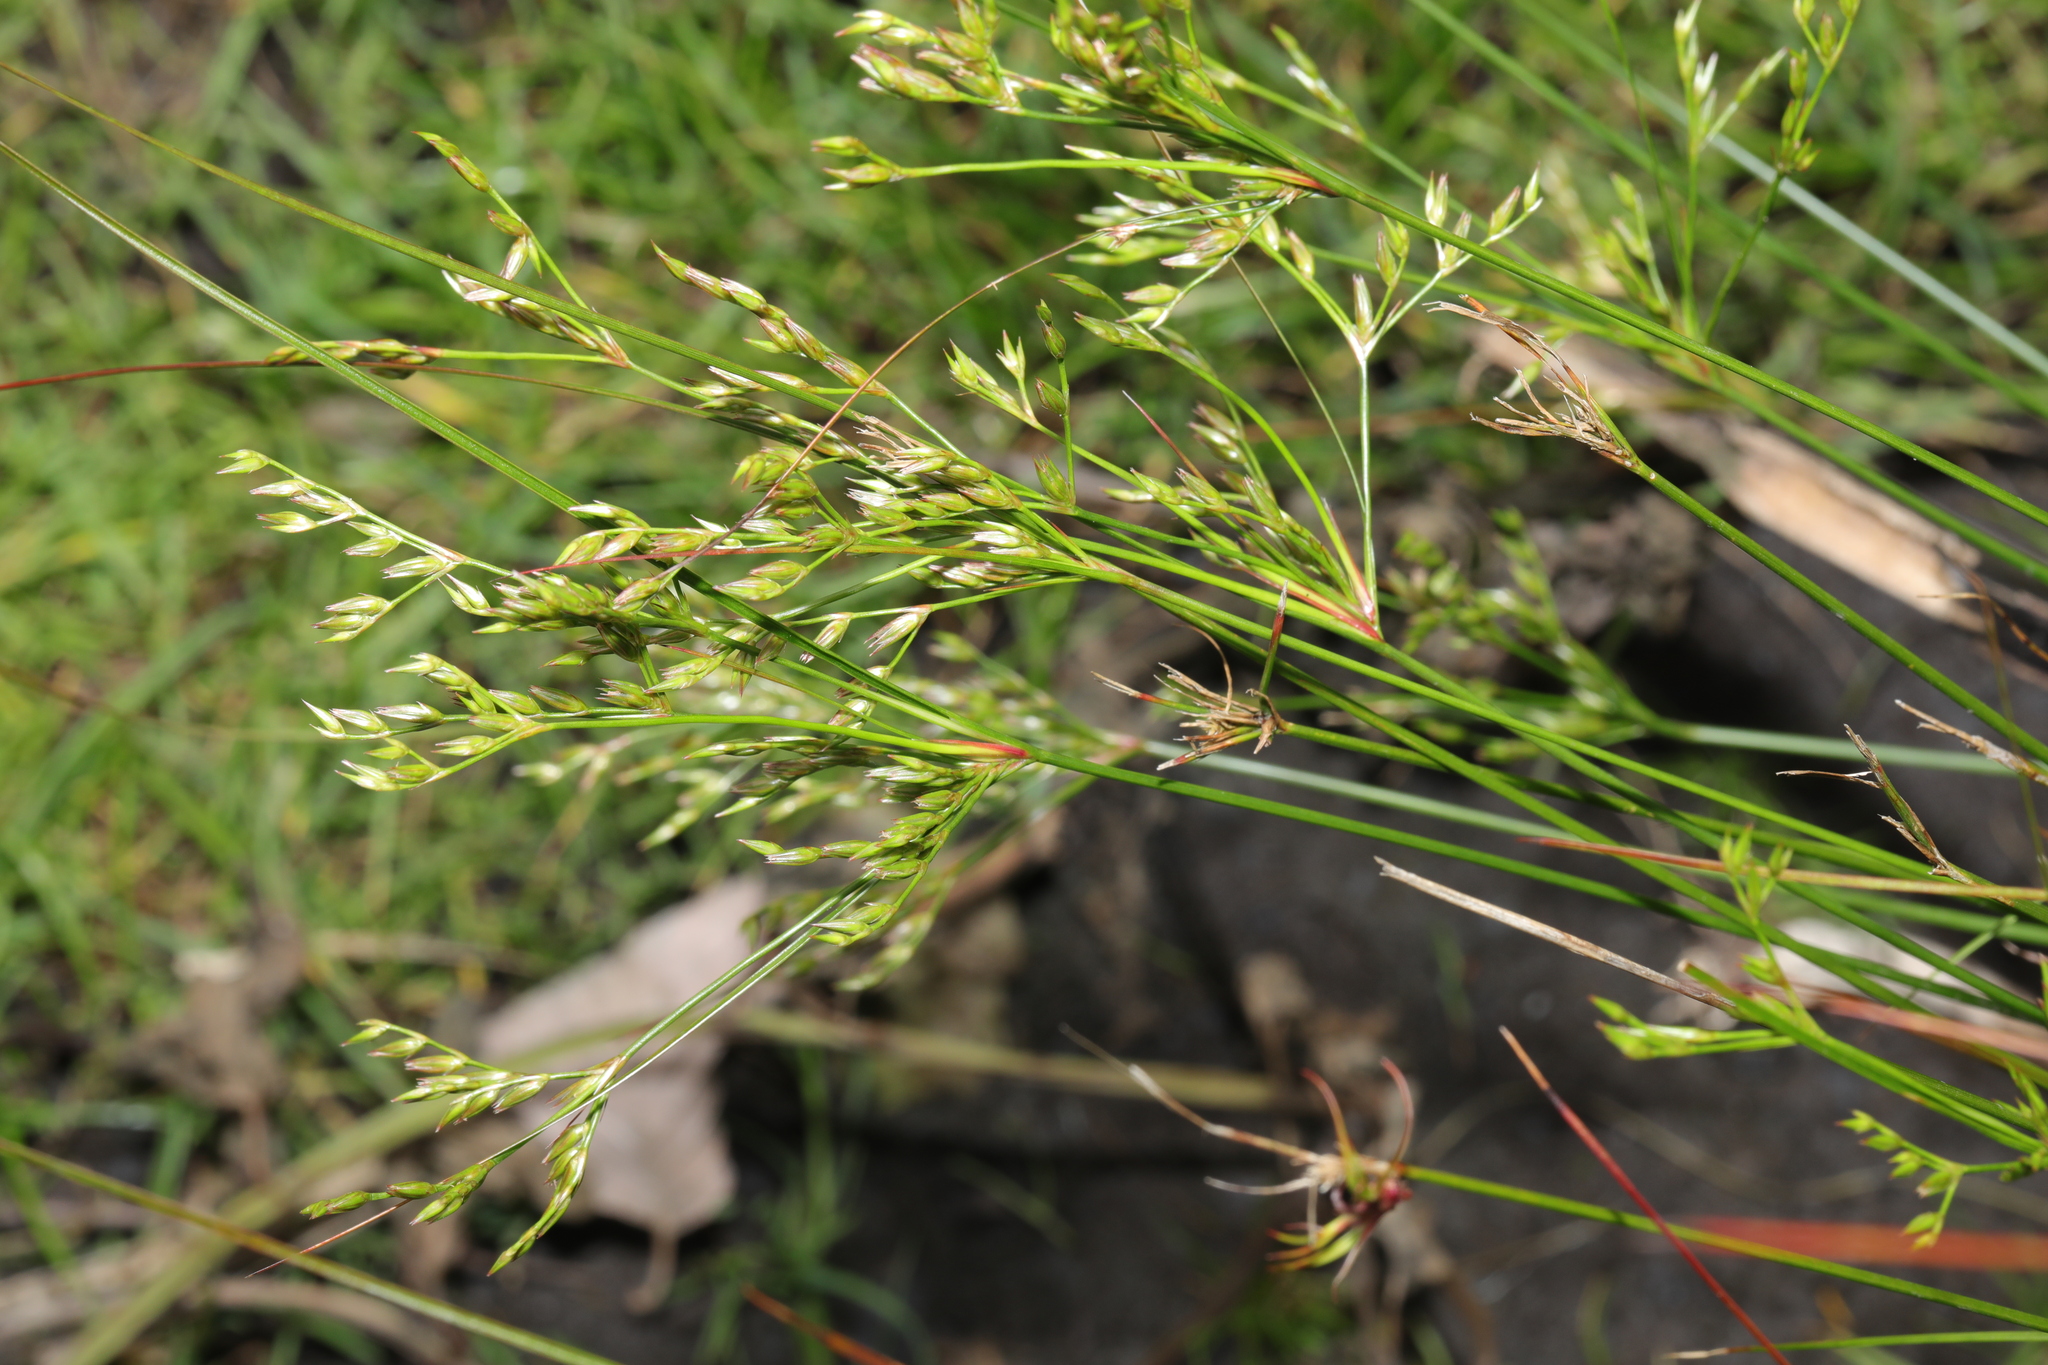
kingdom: Plantae
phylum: Tracheophyta
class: Liliopsida
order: Poales
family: Juncaceae
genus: Juncus
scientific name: Juncus tenuis
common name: Slender rush
